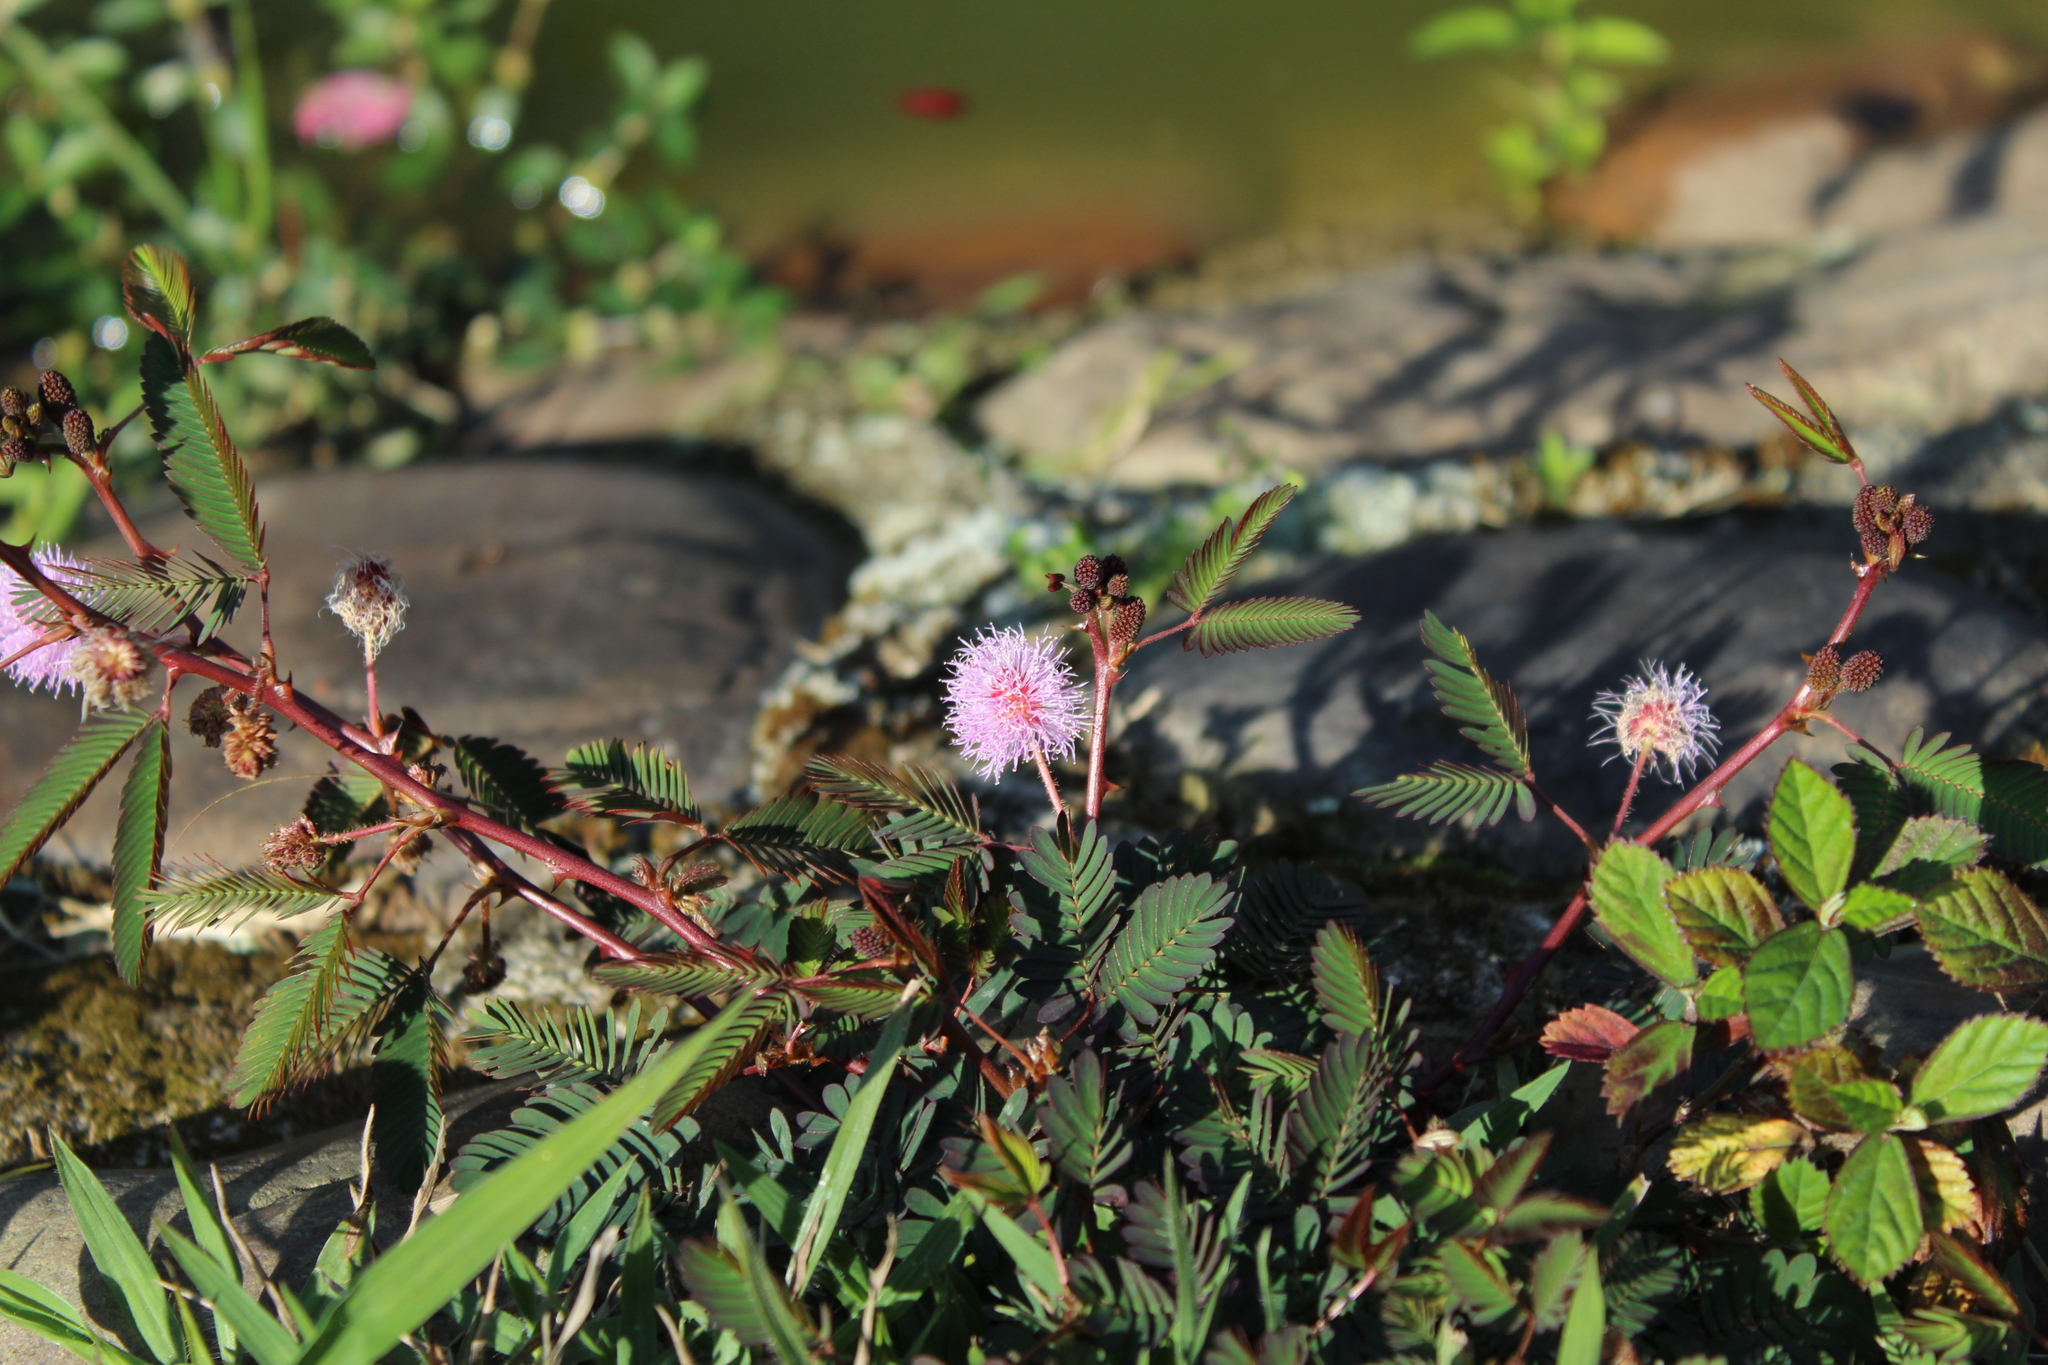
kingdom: Plantae
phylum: Tracheophyta
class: Magnoliopsida
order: Fabales
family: Fabaceae
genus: Mimosa
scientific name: Mimosa pudica
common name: Sensitive plant
